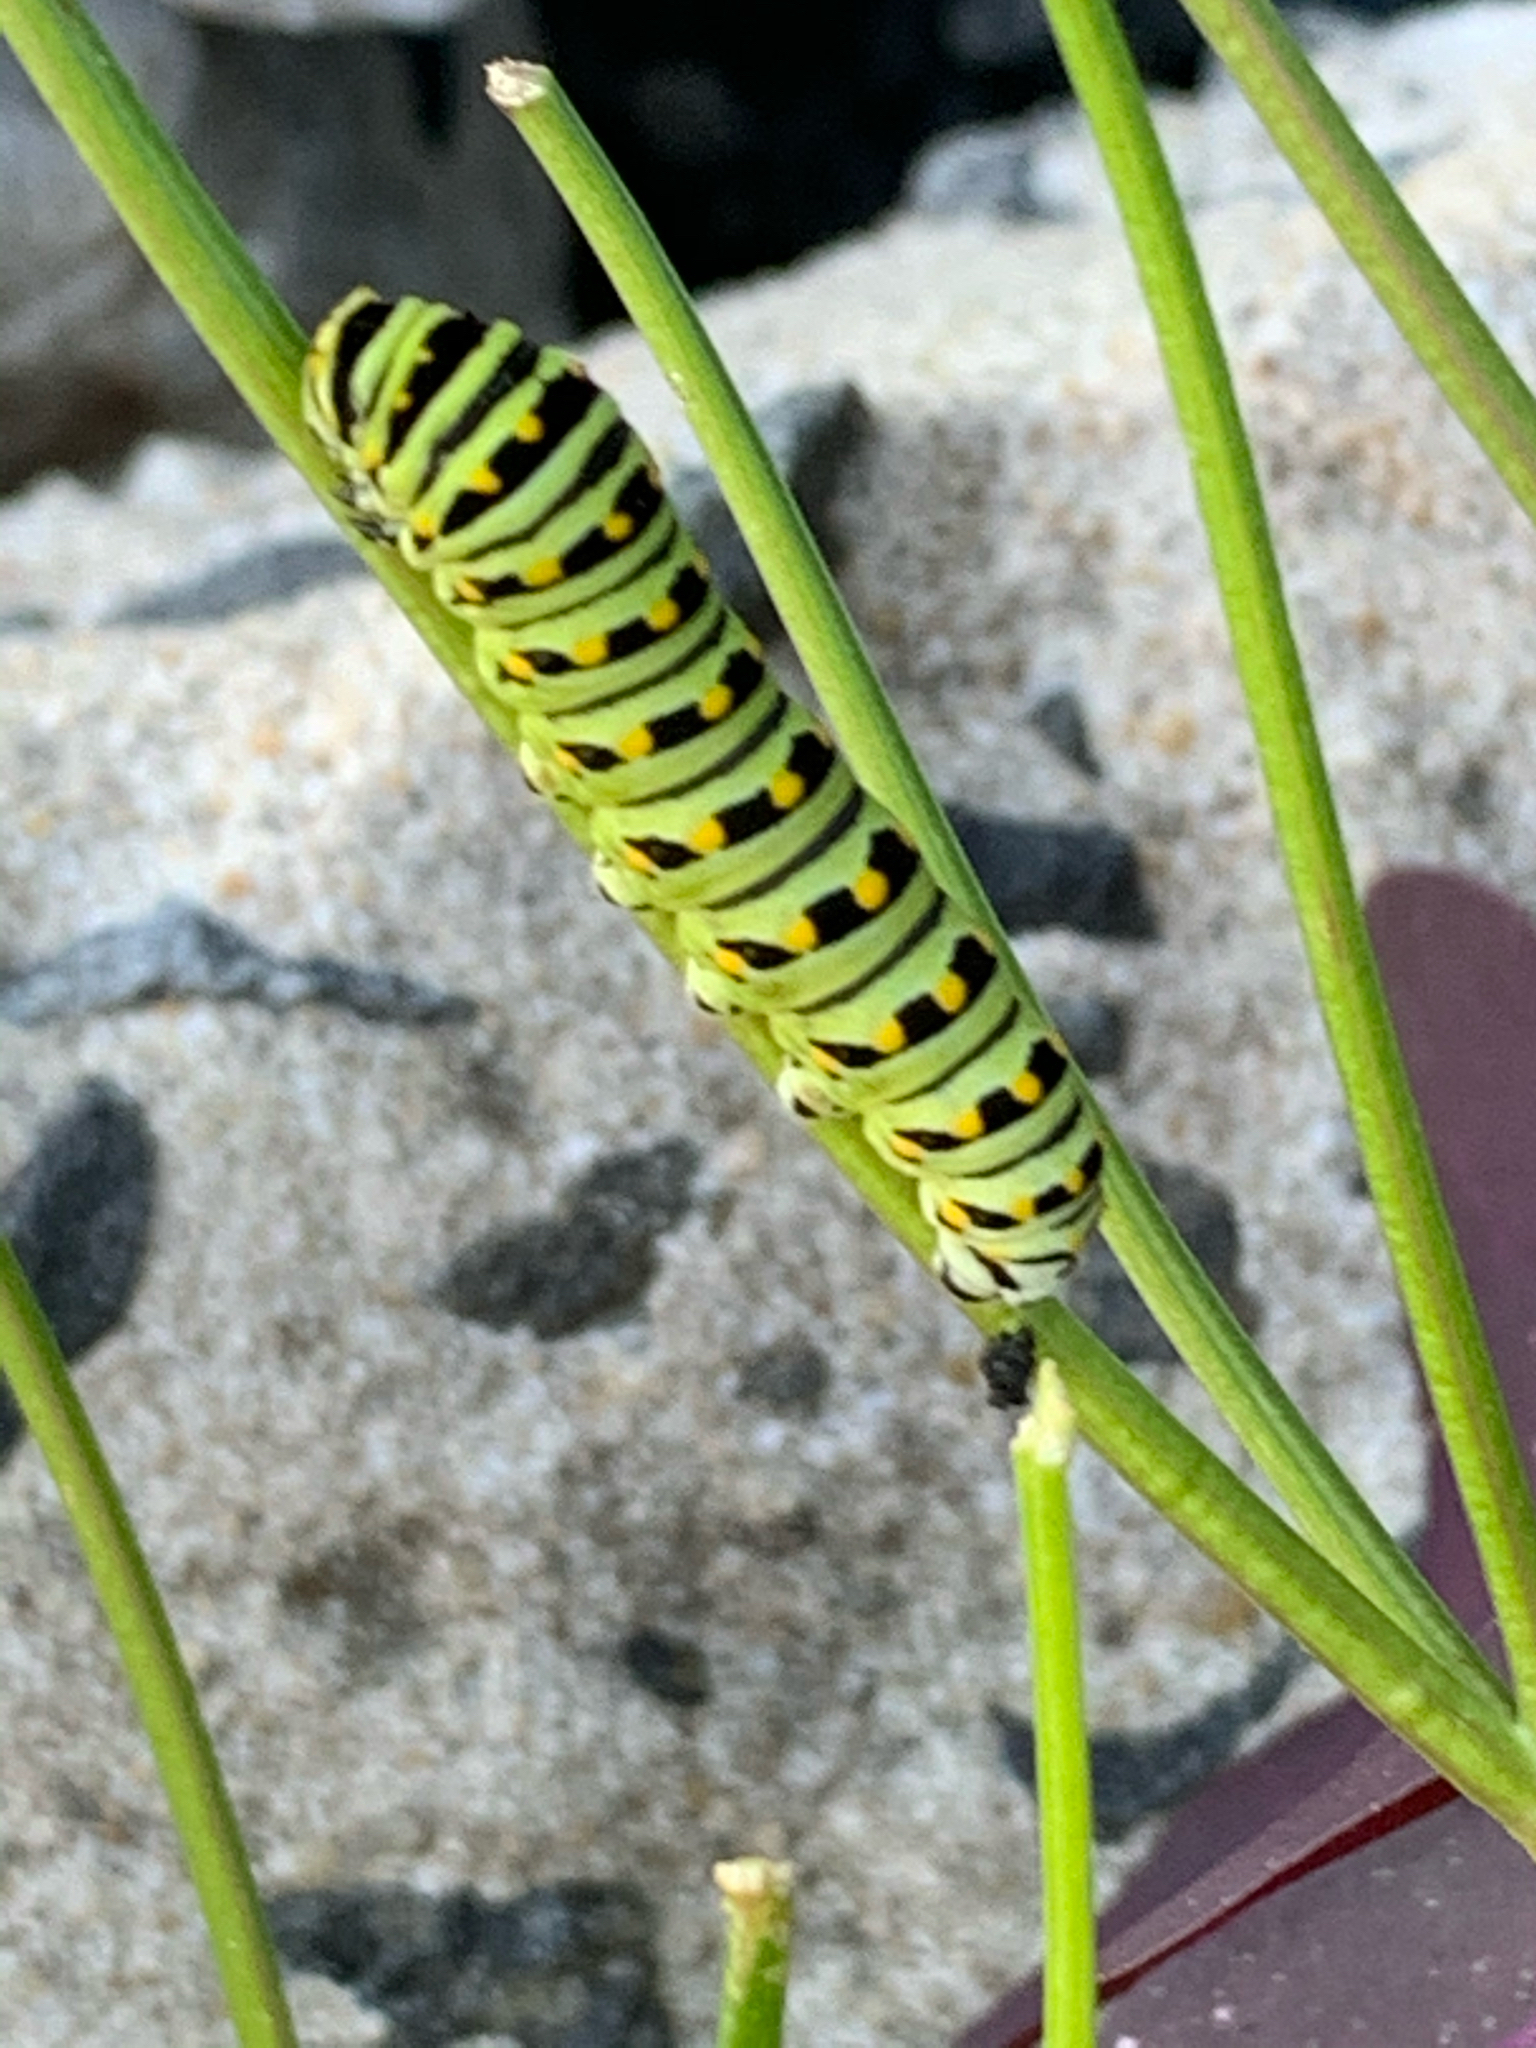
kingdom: Animalia
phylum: Arthropoda
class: Insecta
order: Lepidoptera
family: Papilionidae
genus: Papilio
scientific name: Papilio polyxenes
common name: Black swallowtail
